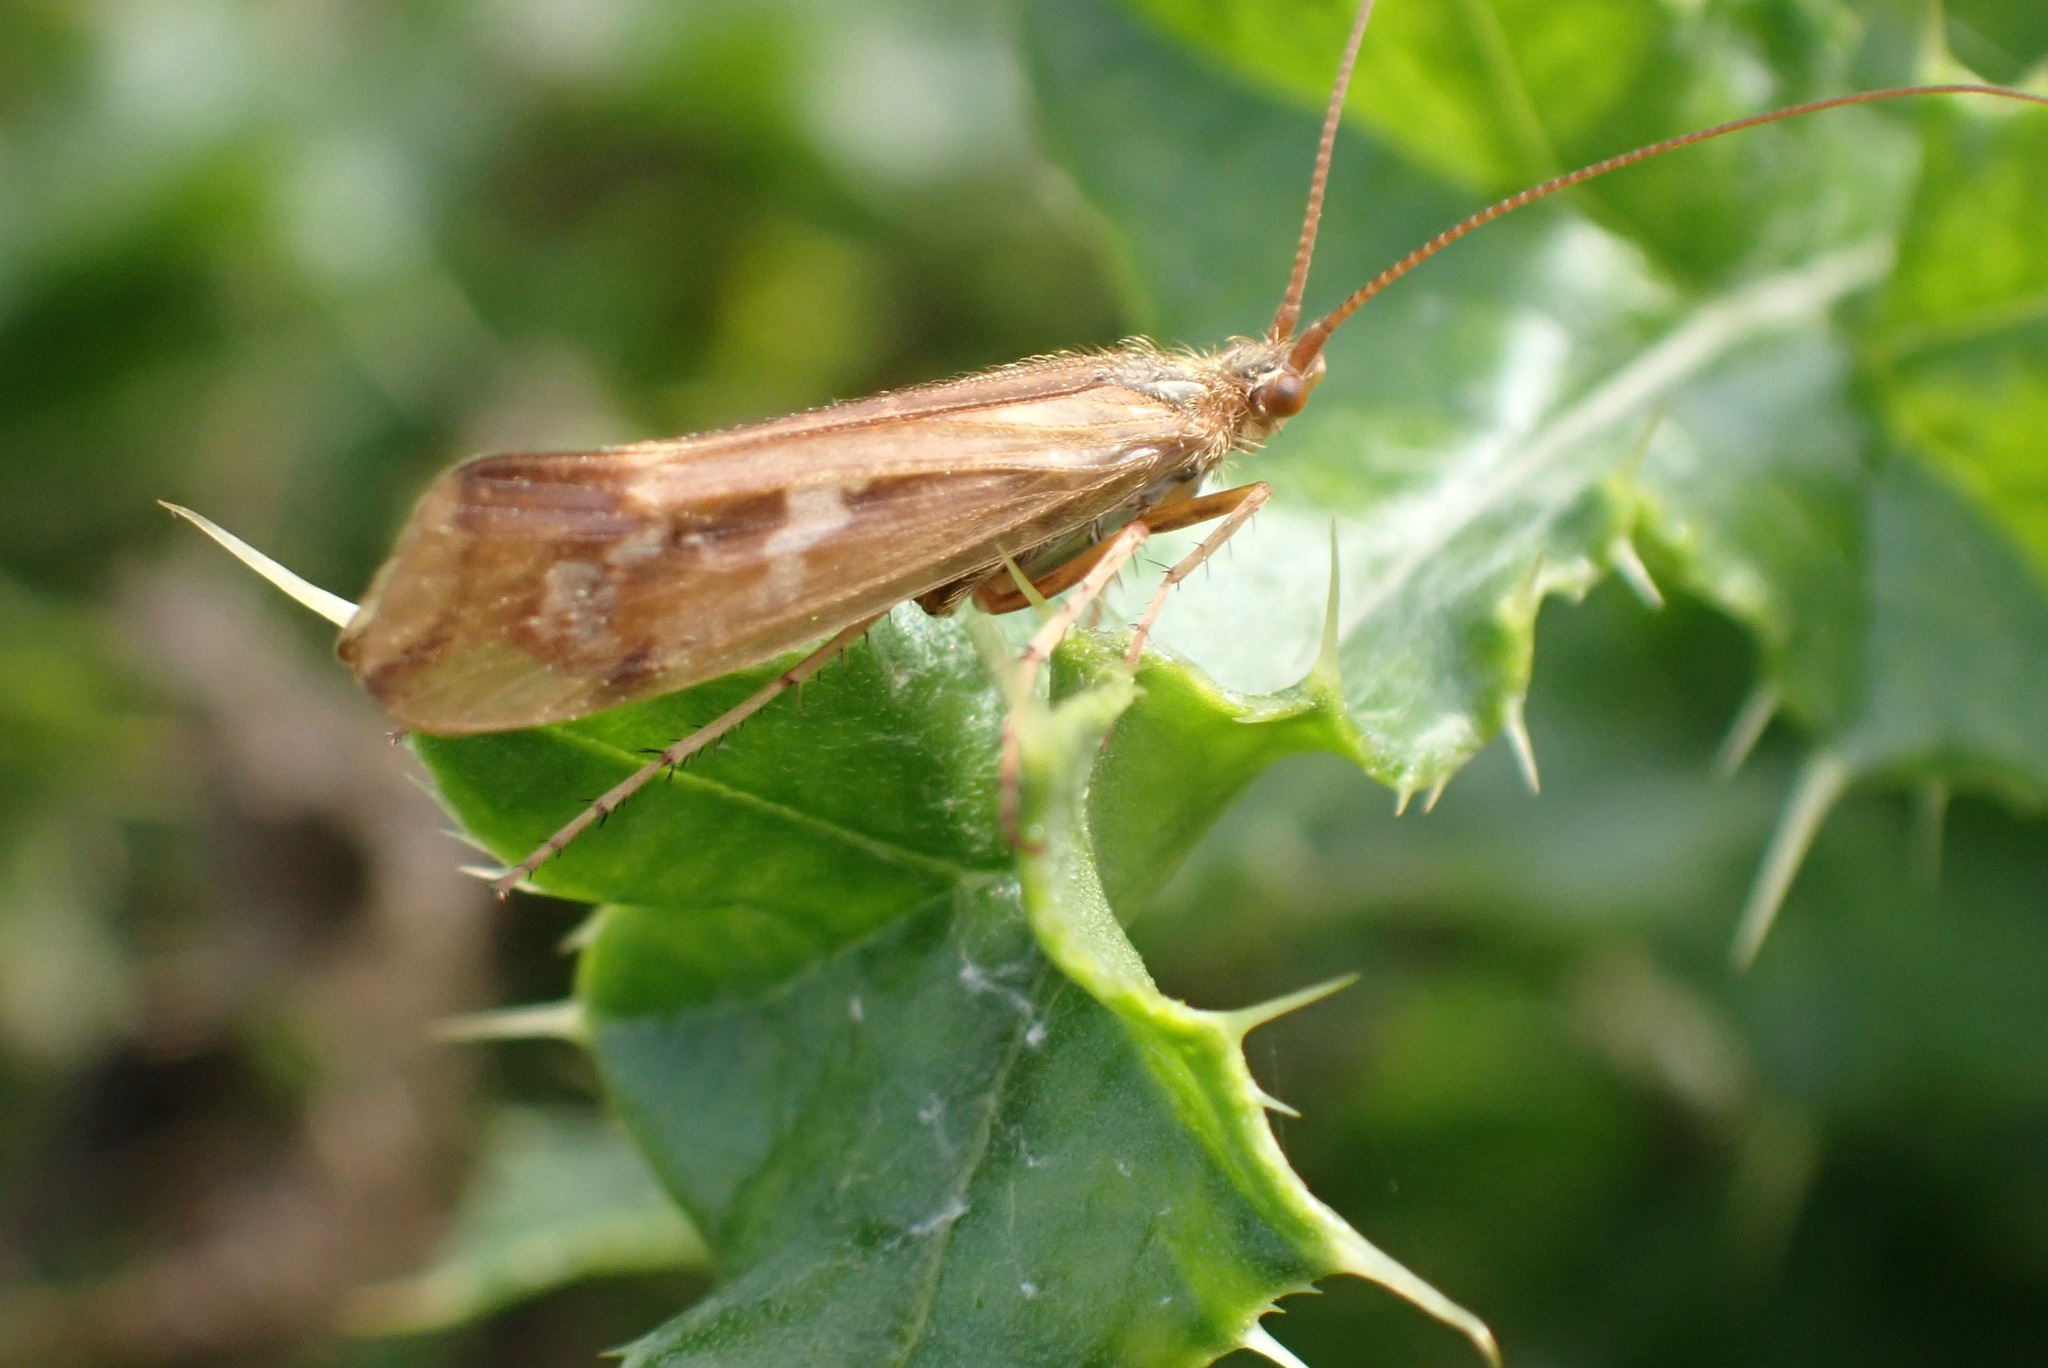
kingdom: Animalia
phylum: Arthropoda
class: Insecta
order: Trichoptera
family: Limnephilidae
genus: Limnephilus
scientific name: Limnephilus lunatus
